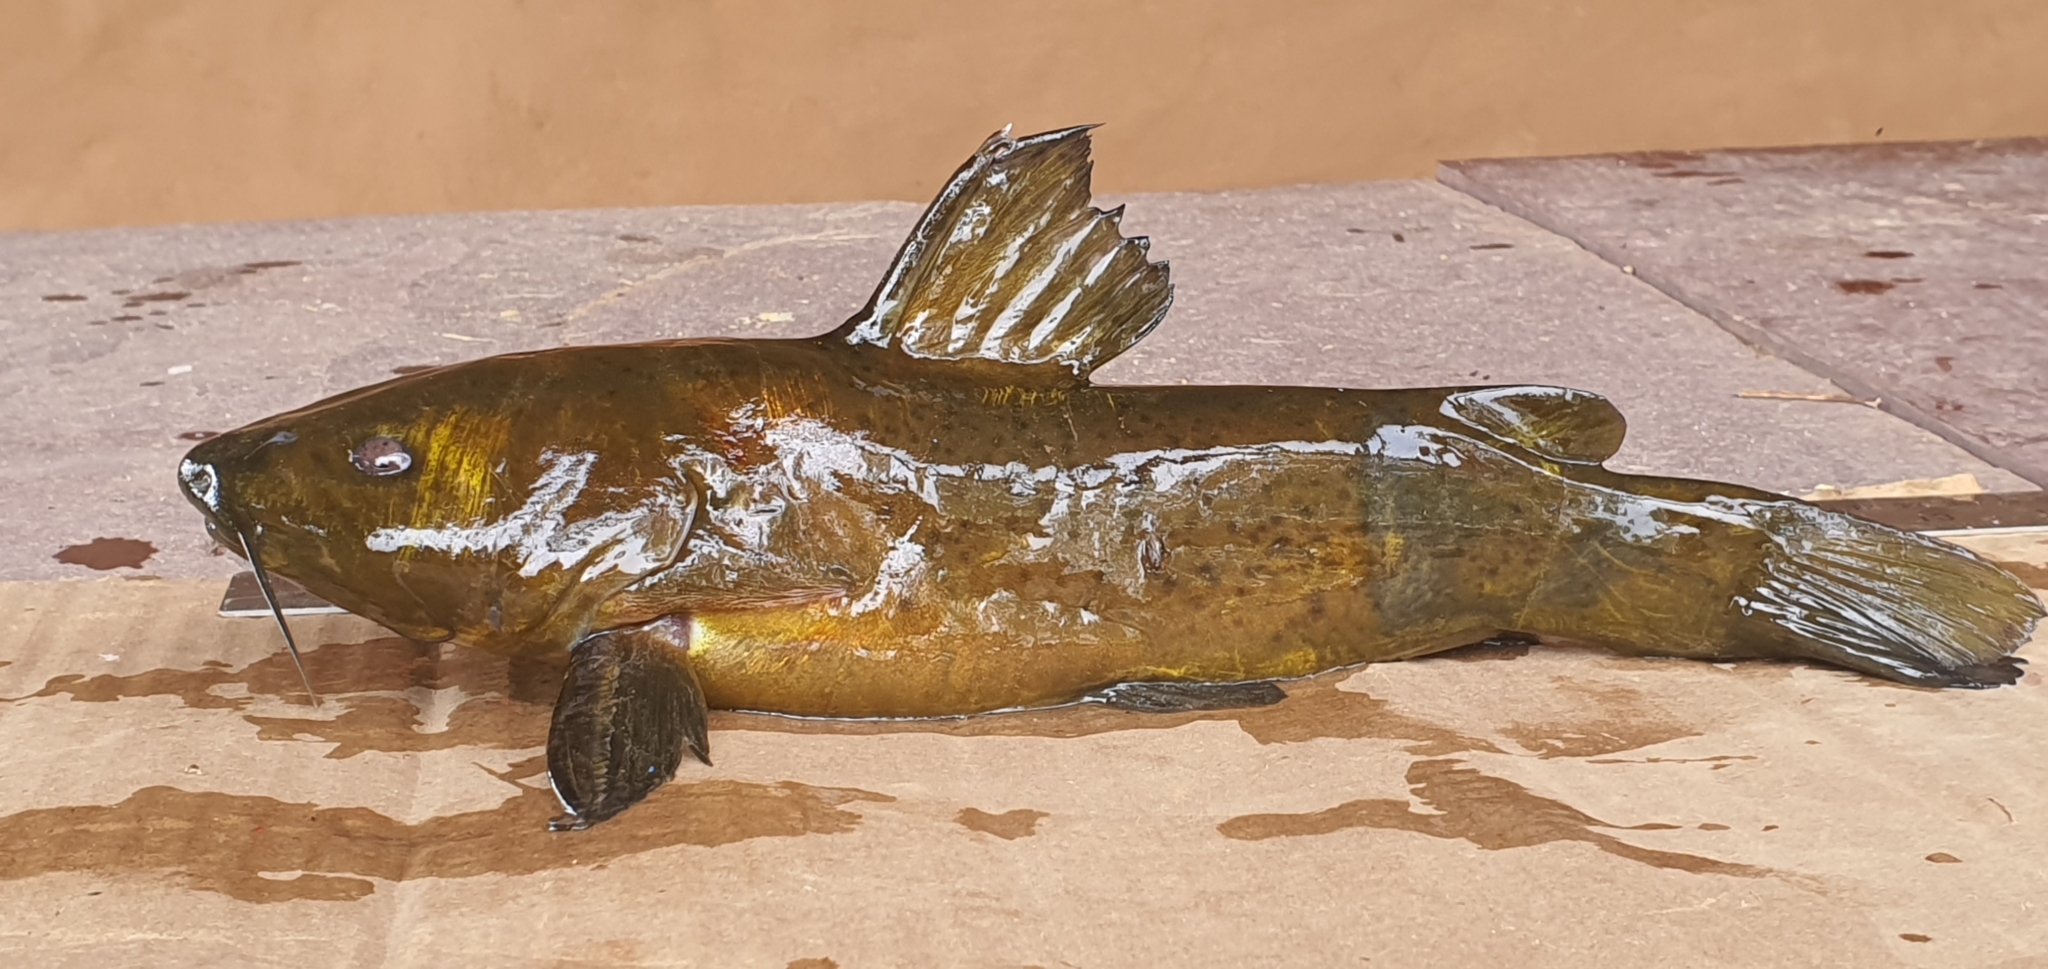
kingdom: Animalia
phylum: Chordata
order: Siluriformes
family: Bagridae
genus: Rita
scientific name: Rita gogra
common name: Gogra rita
